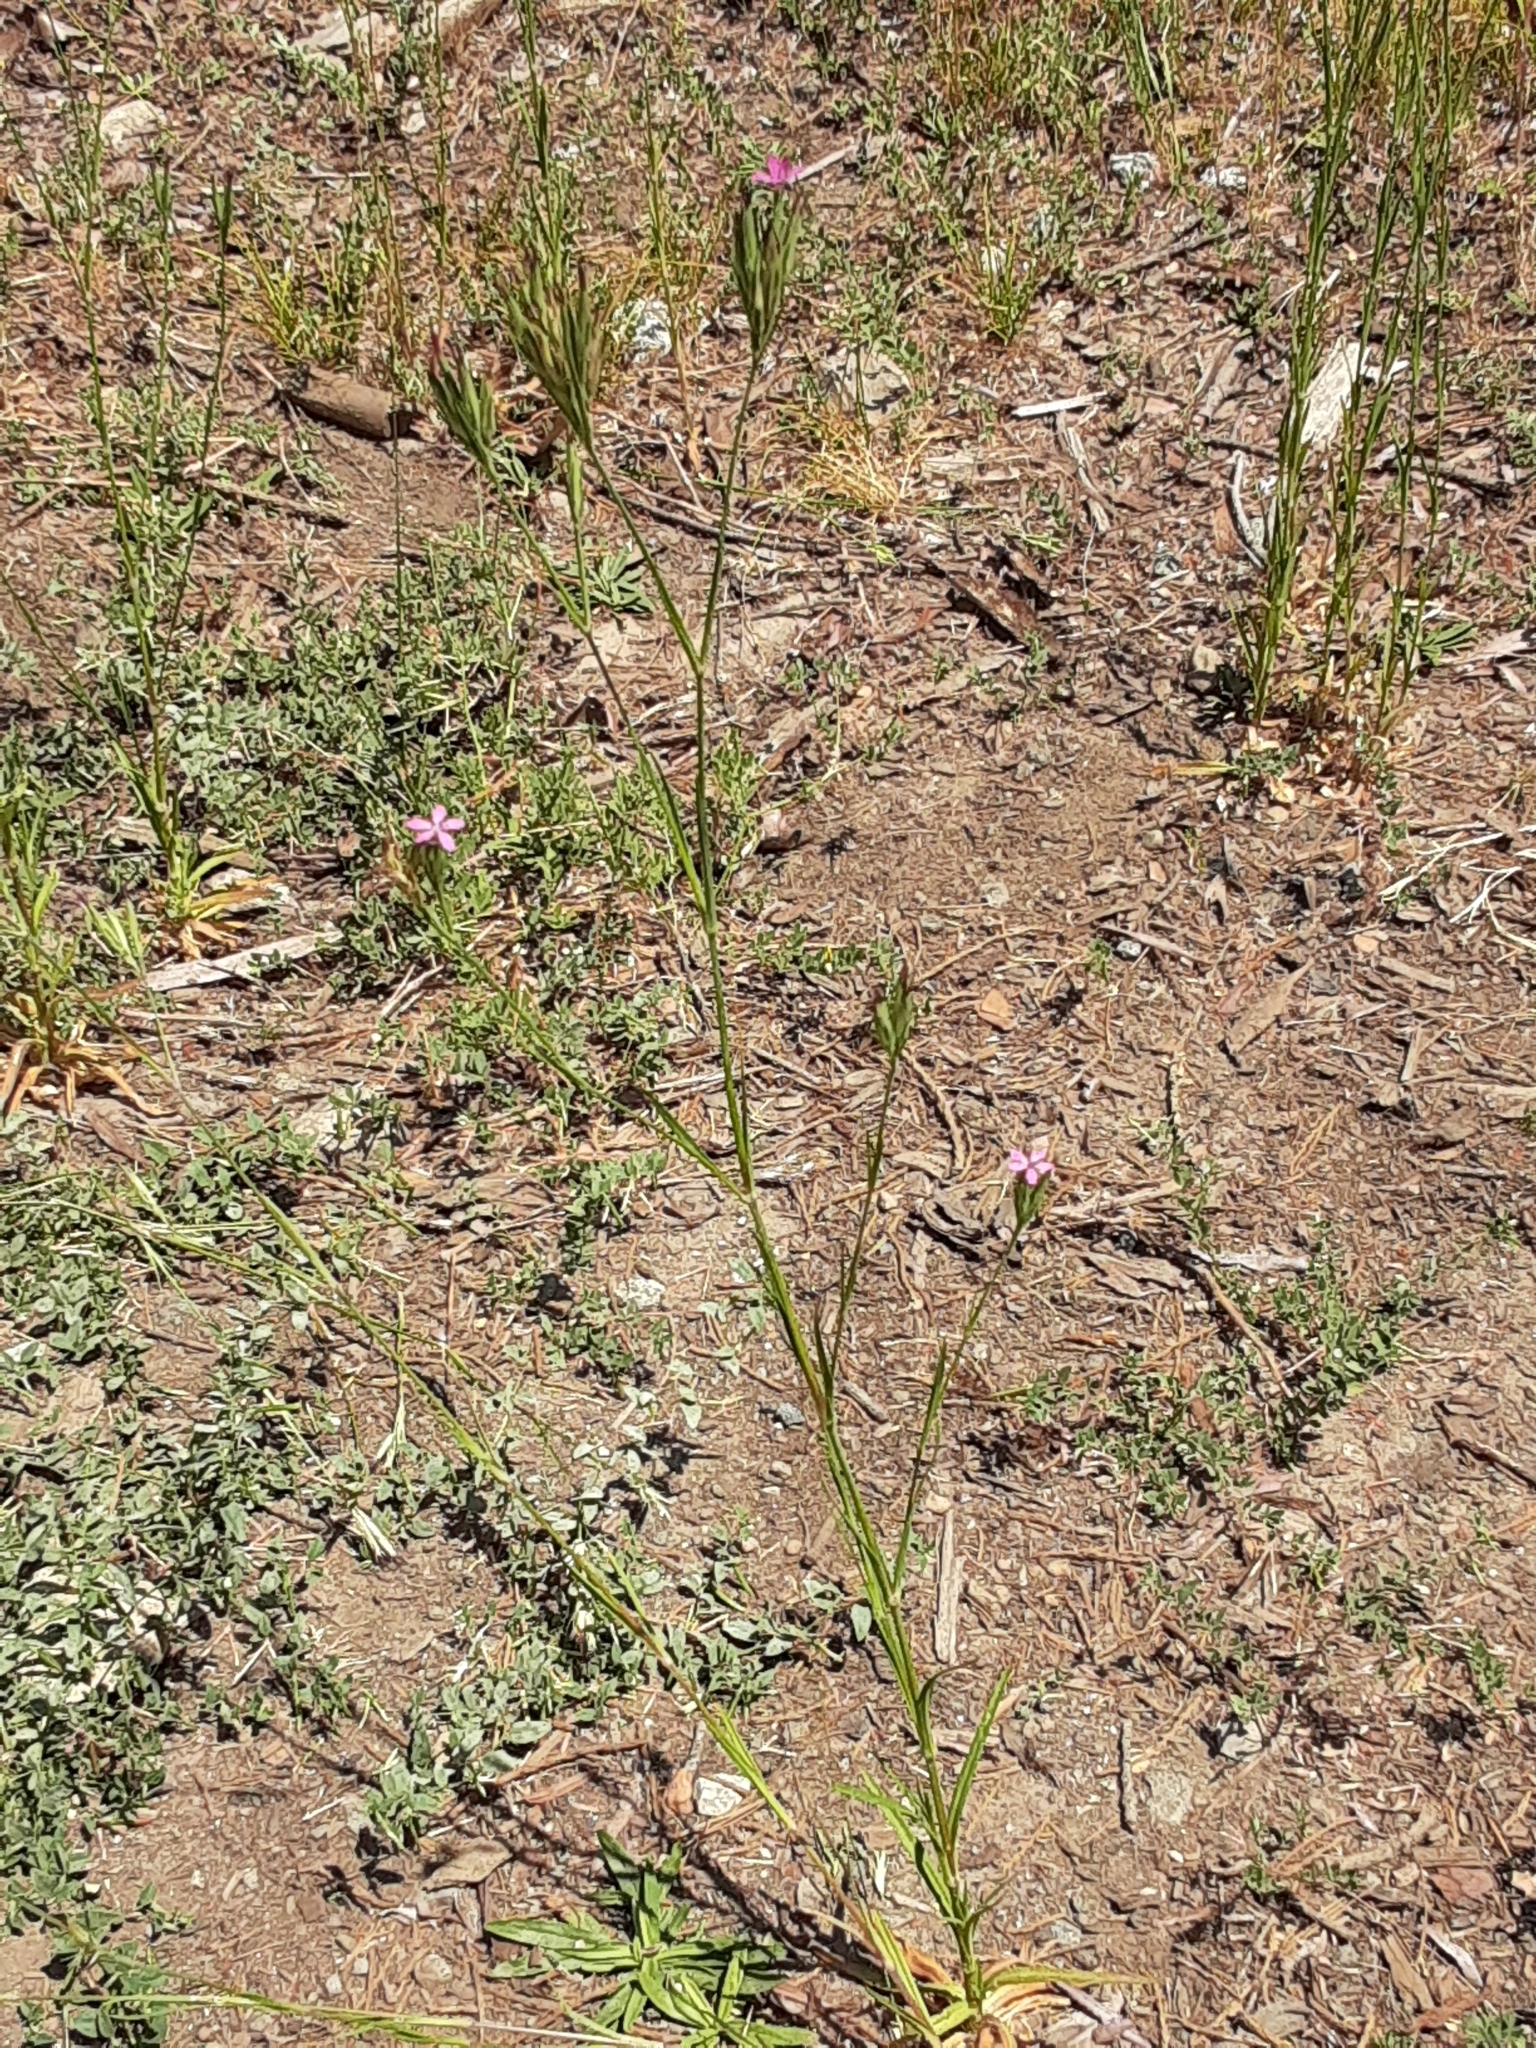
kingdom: Plantae
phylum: Tracheophyta
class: Magnoliopsida
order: Caryophyllales
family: Caryophyllaceae
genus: Dianthus
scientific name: Dianthus armeria
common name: Deptford pink
